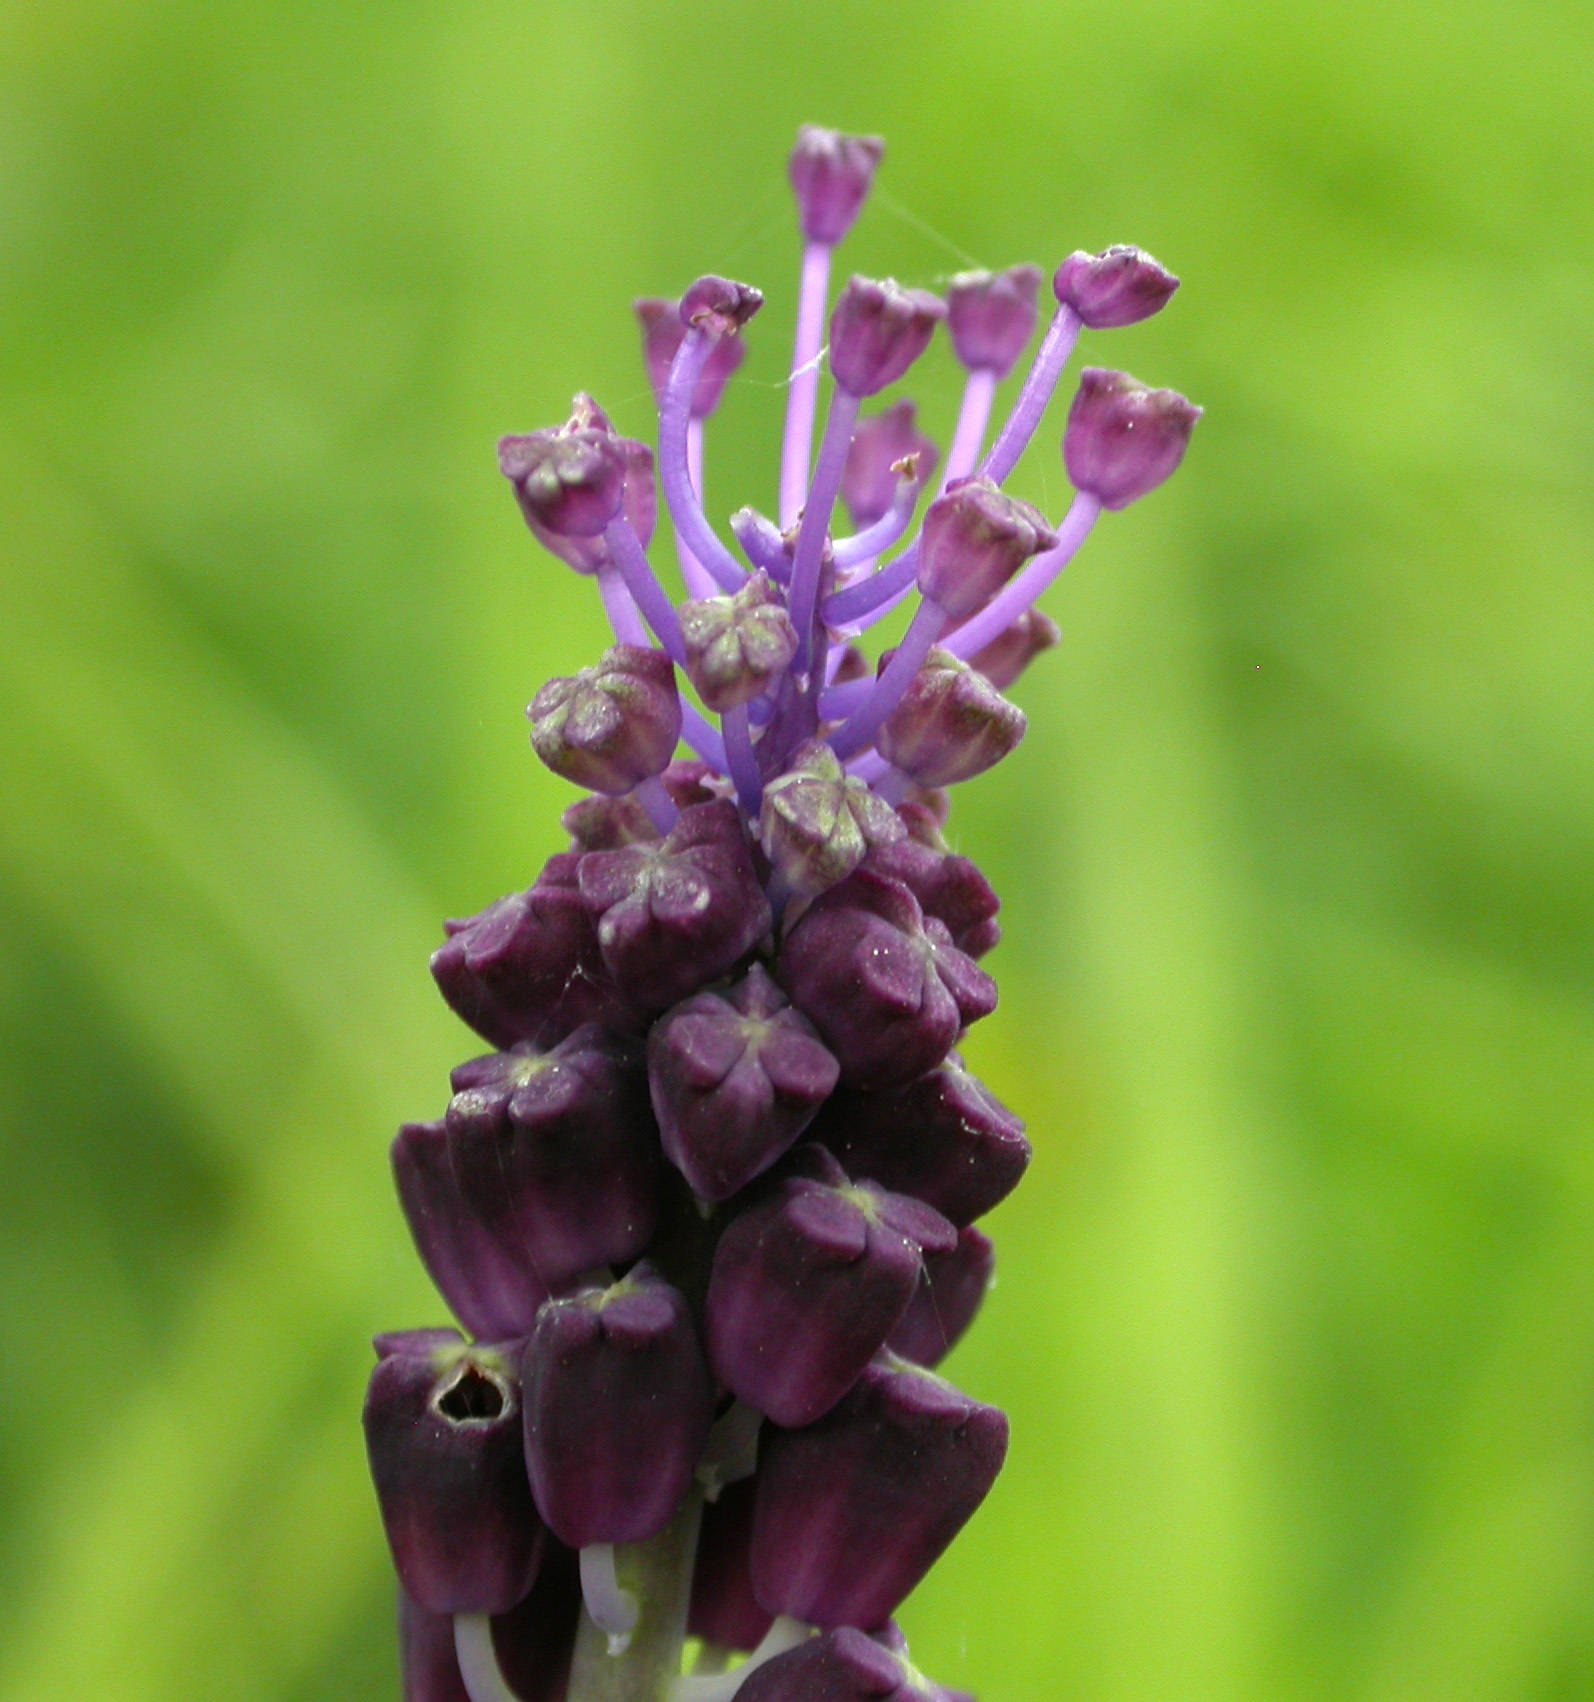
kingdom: Plantae
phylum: Tracheophyta
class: Liliopsida
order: Asparagales
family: Asparagaceae
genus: Muscari
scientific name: Muscari comosum
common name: Tassel hyacinth
